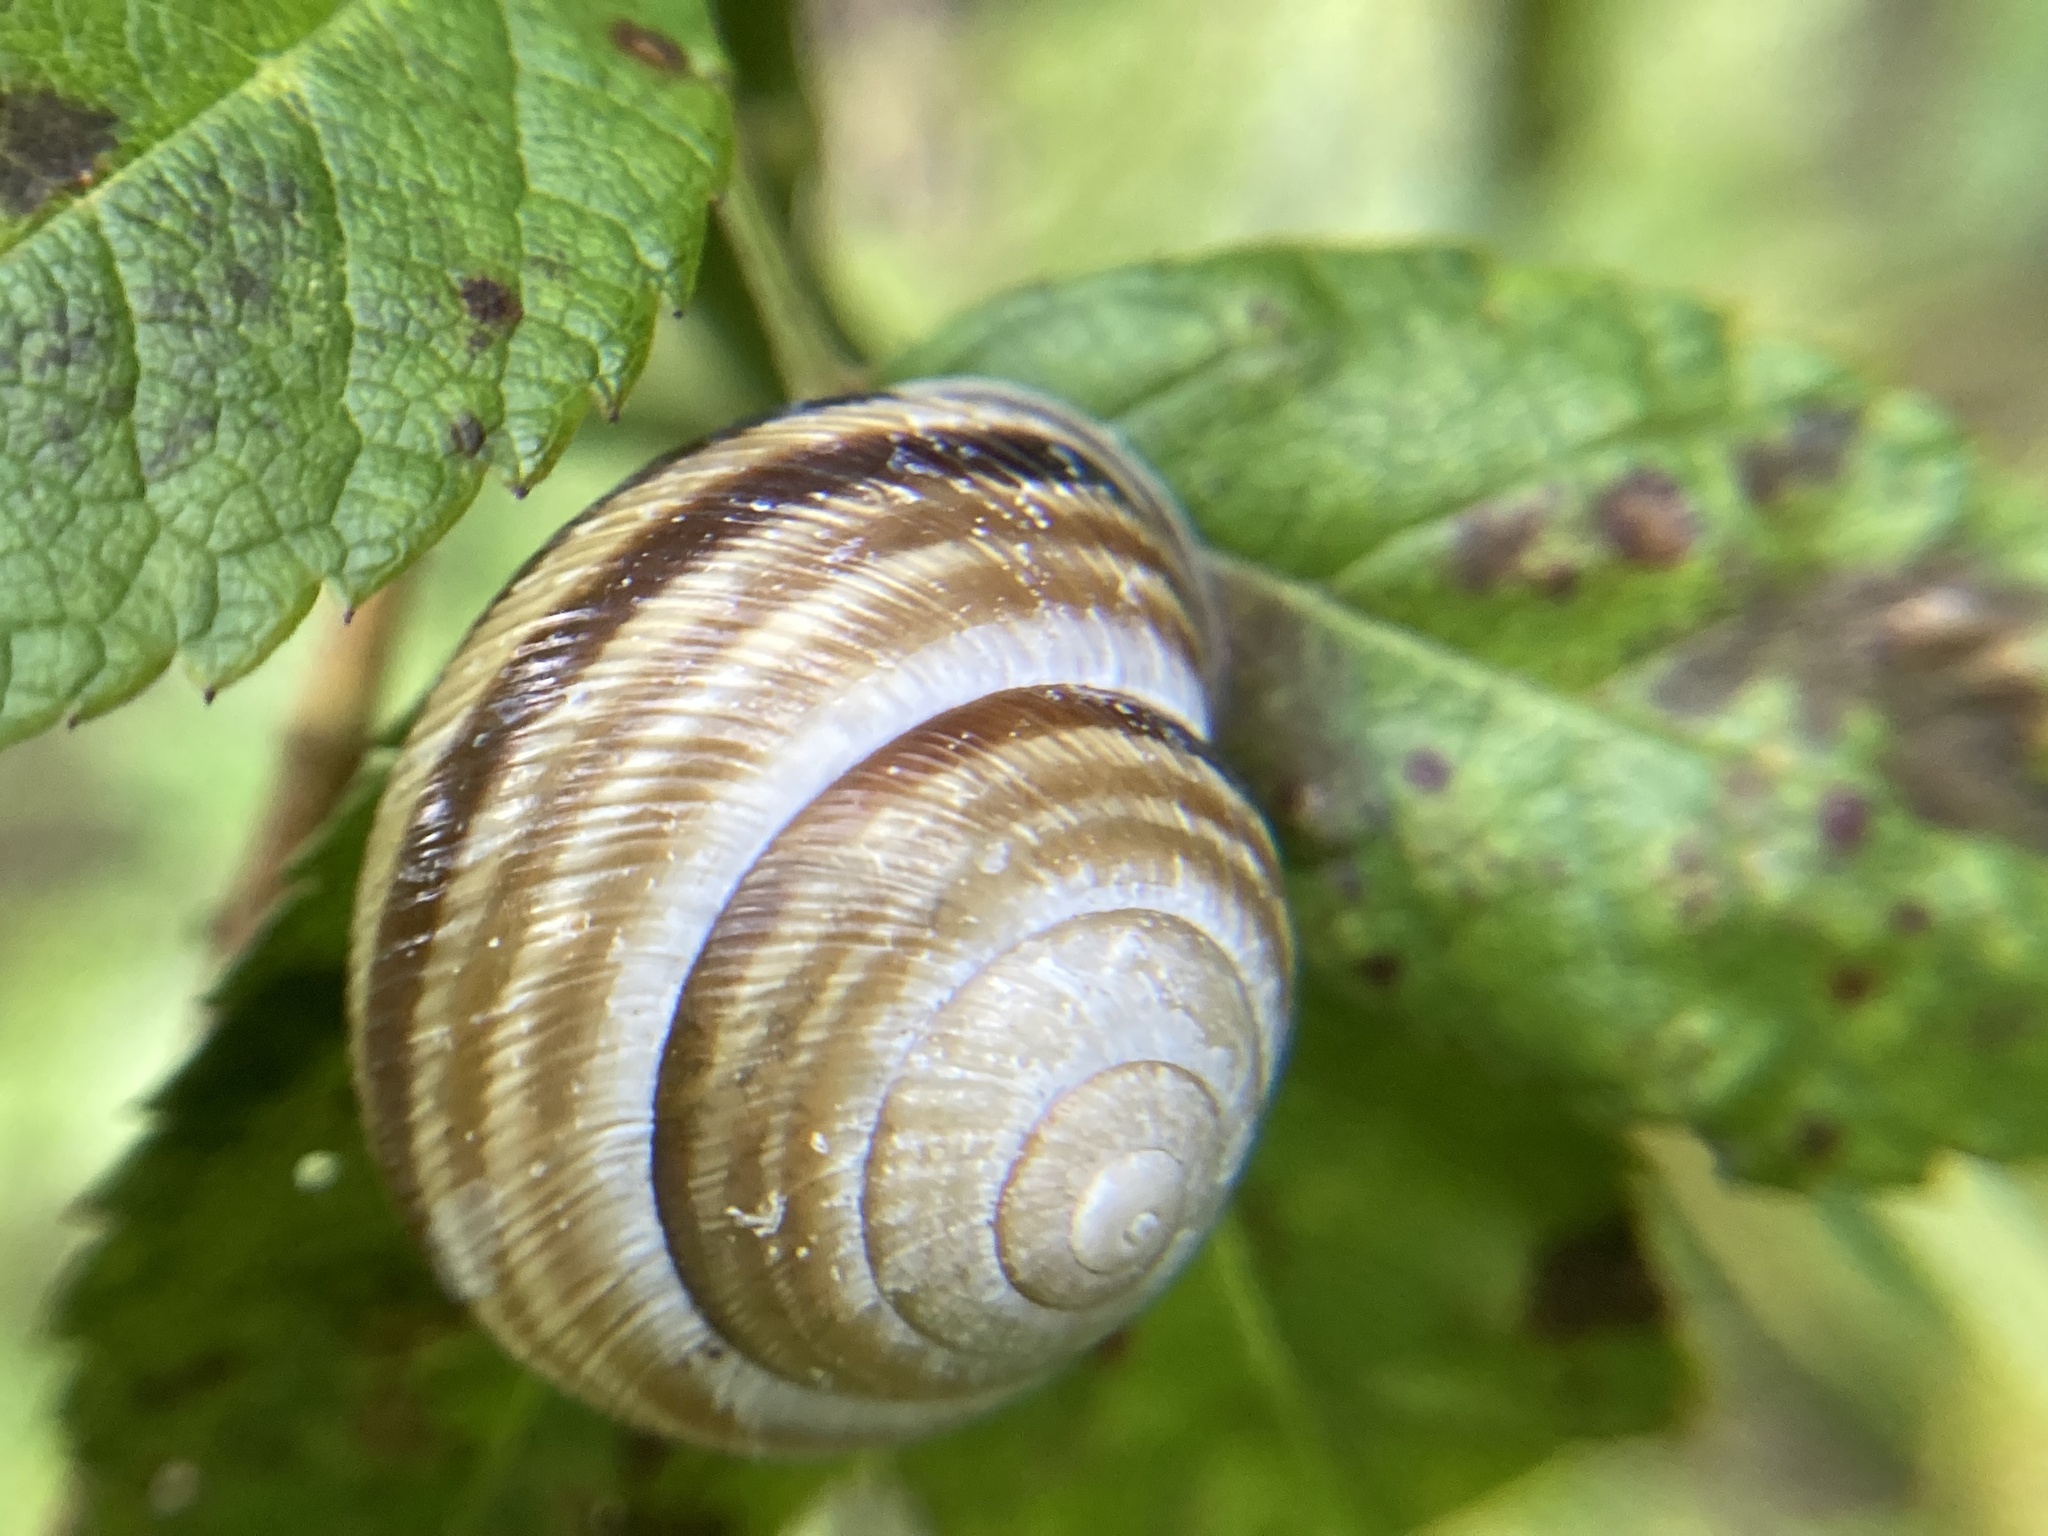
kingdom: Animalia
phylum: Mollusca
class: Gastropoda
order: Stylommatophora
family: Helicidae
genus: Caucasotachea
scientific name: Caucasotachea vindobonensis
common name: European helicid land snail
